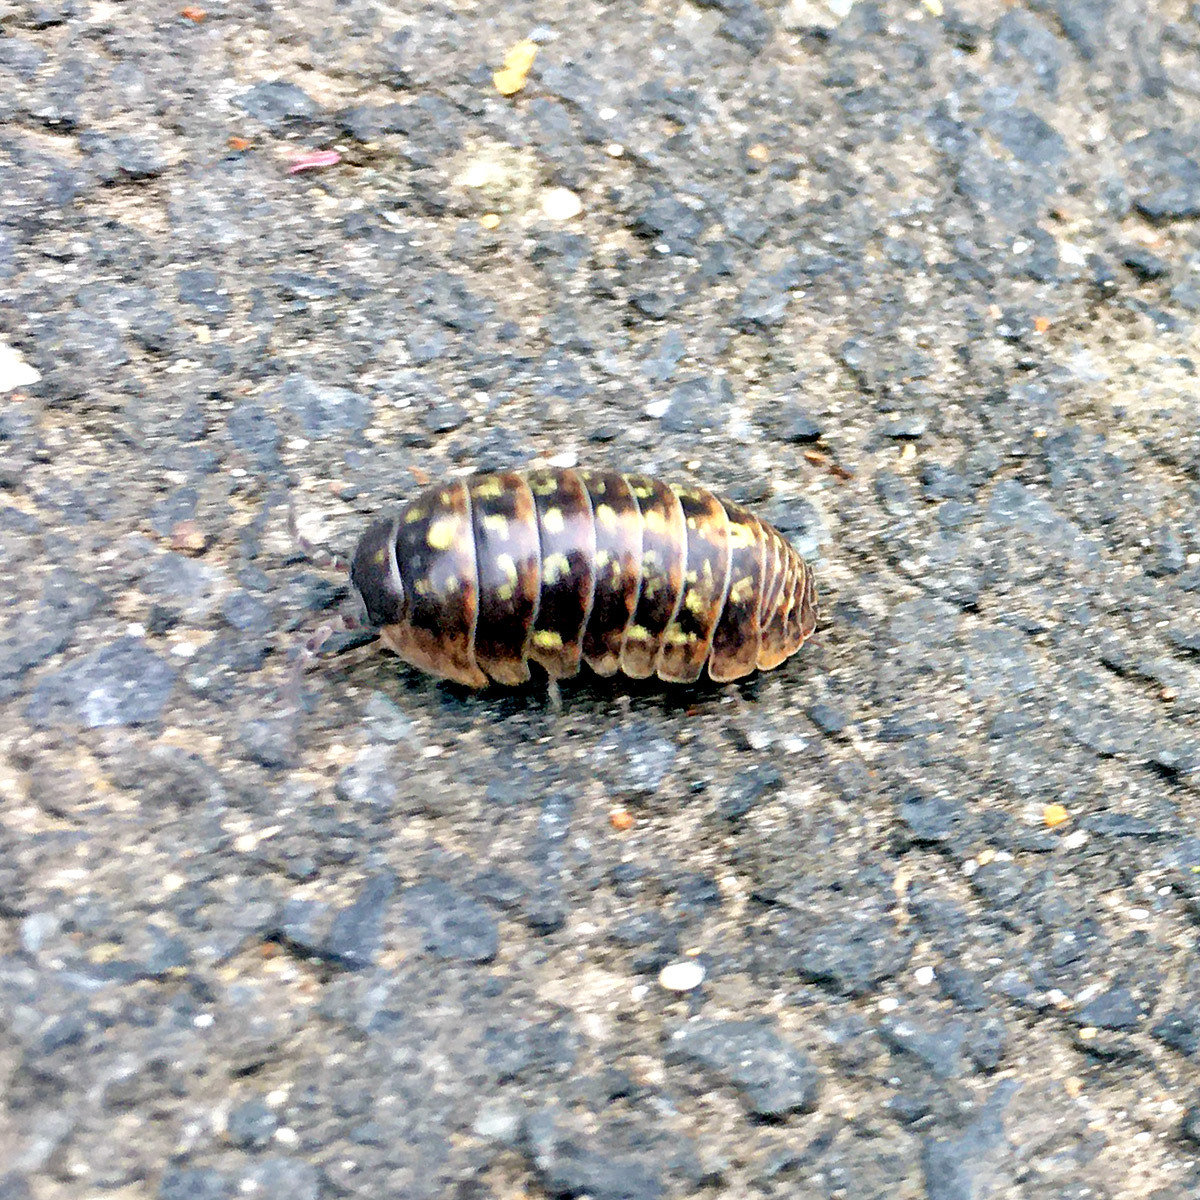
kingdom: Animalia
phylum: Arthropoda
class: Malacostraca
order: Isopoda
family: Armadillidiidae
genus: Armadillidium
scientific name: Armadillidium vulgare
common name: Common pill woodlouse
